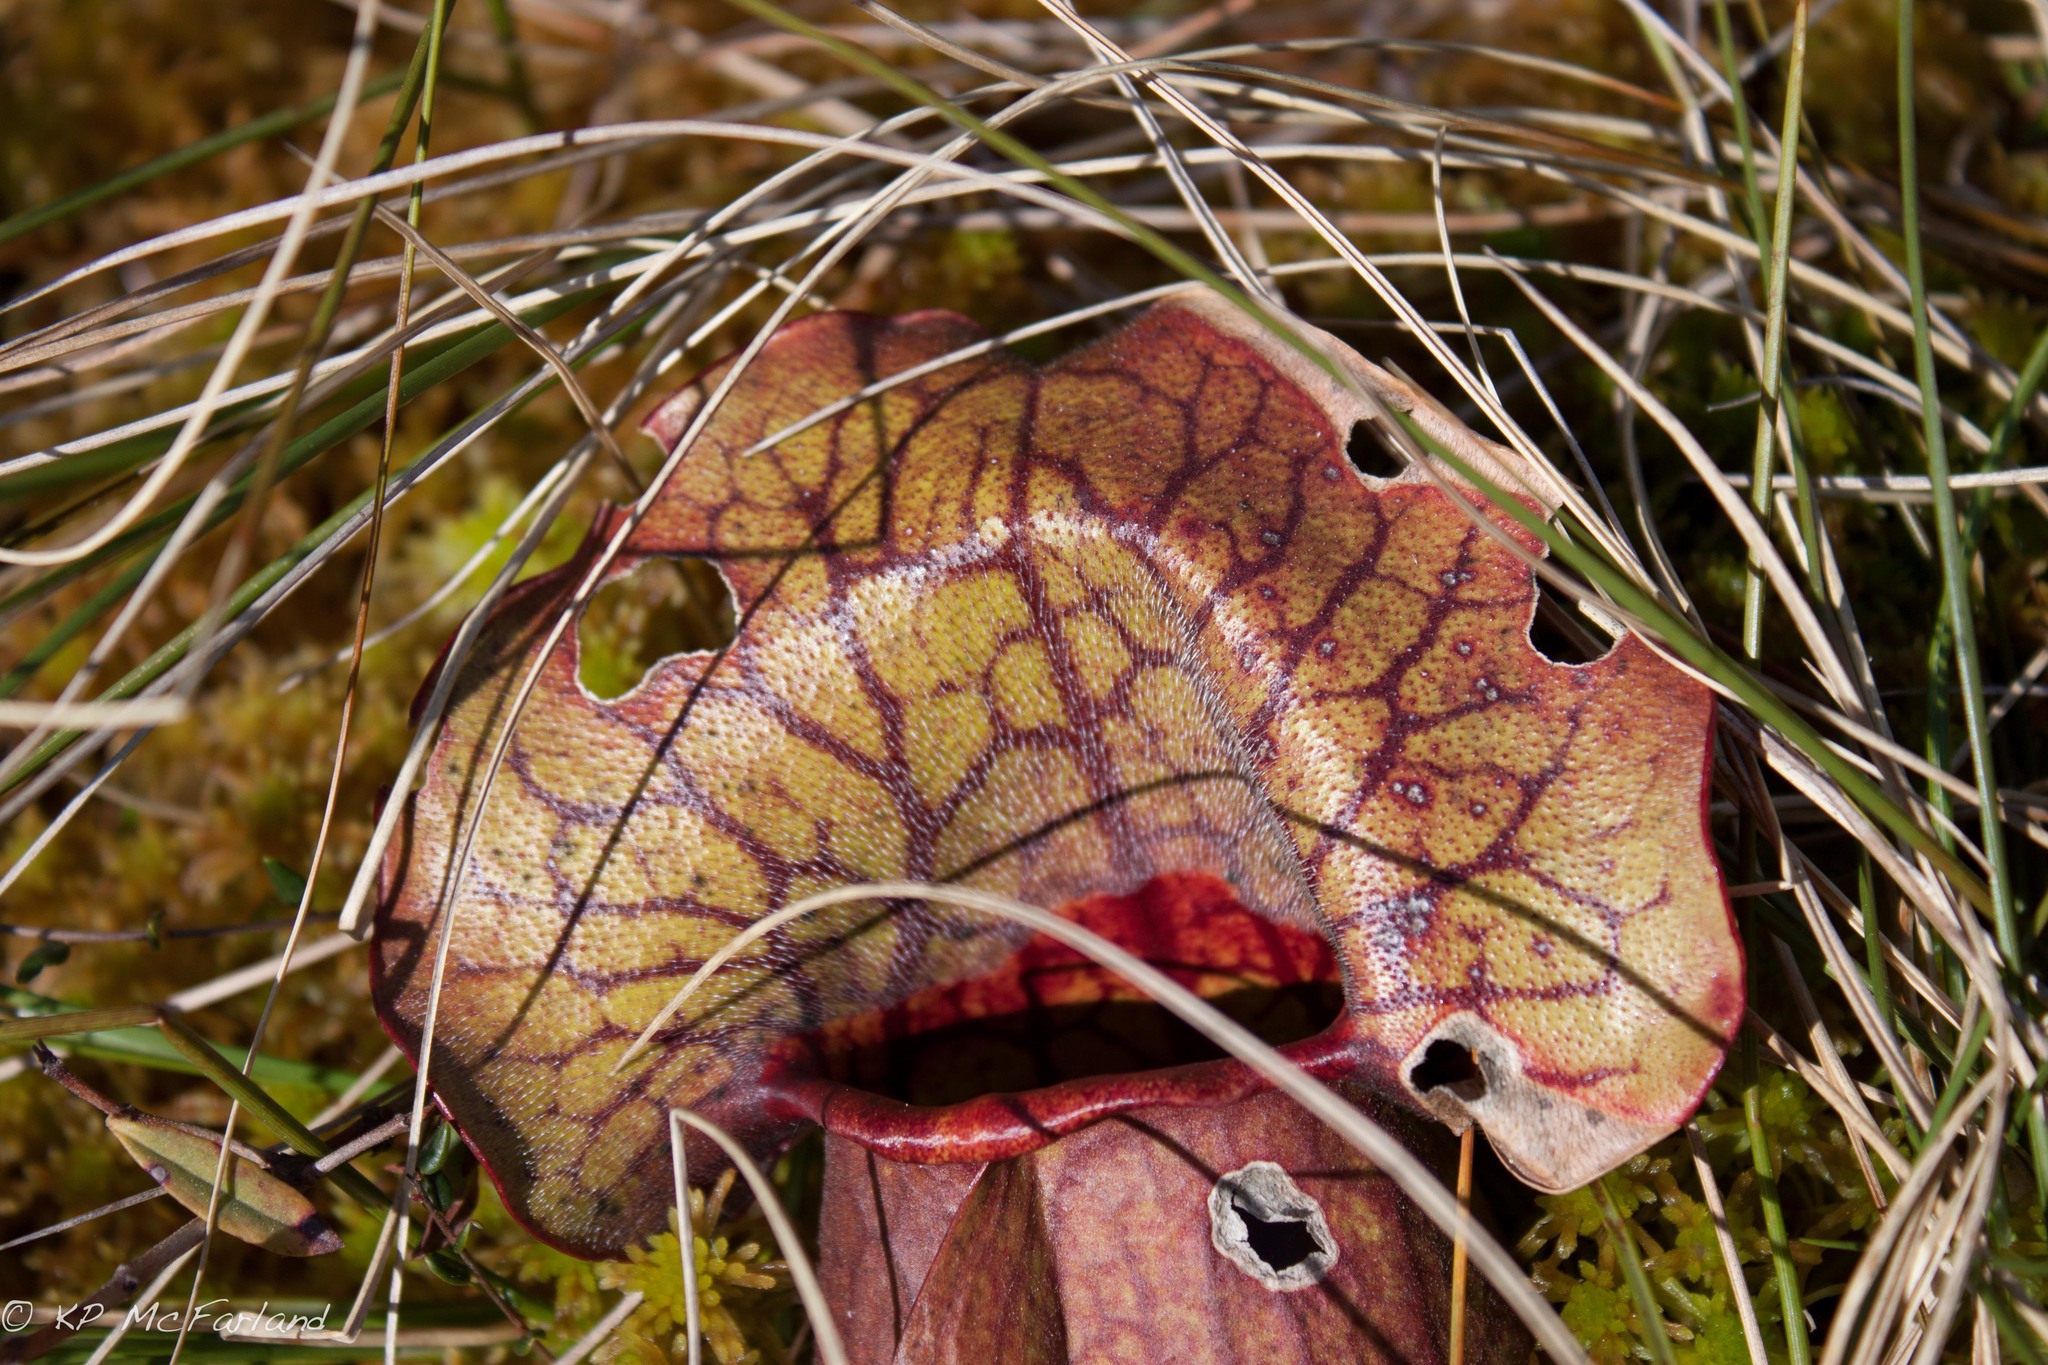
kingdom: Plantae
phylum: Tracheophyta
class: Magnoliopsida
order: Ericales
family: Sarraceniaceae
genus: Sarracenia
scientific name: Sarracenia purpurea
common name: Pitcherplant
